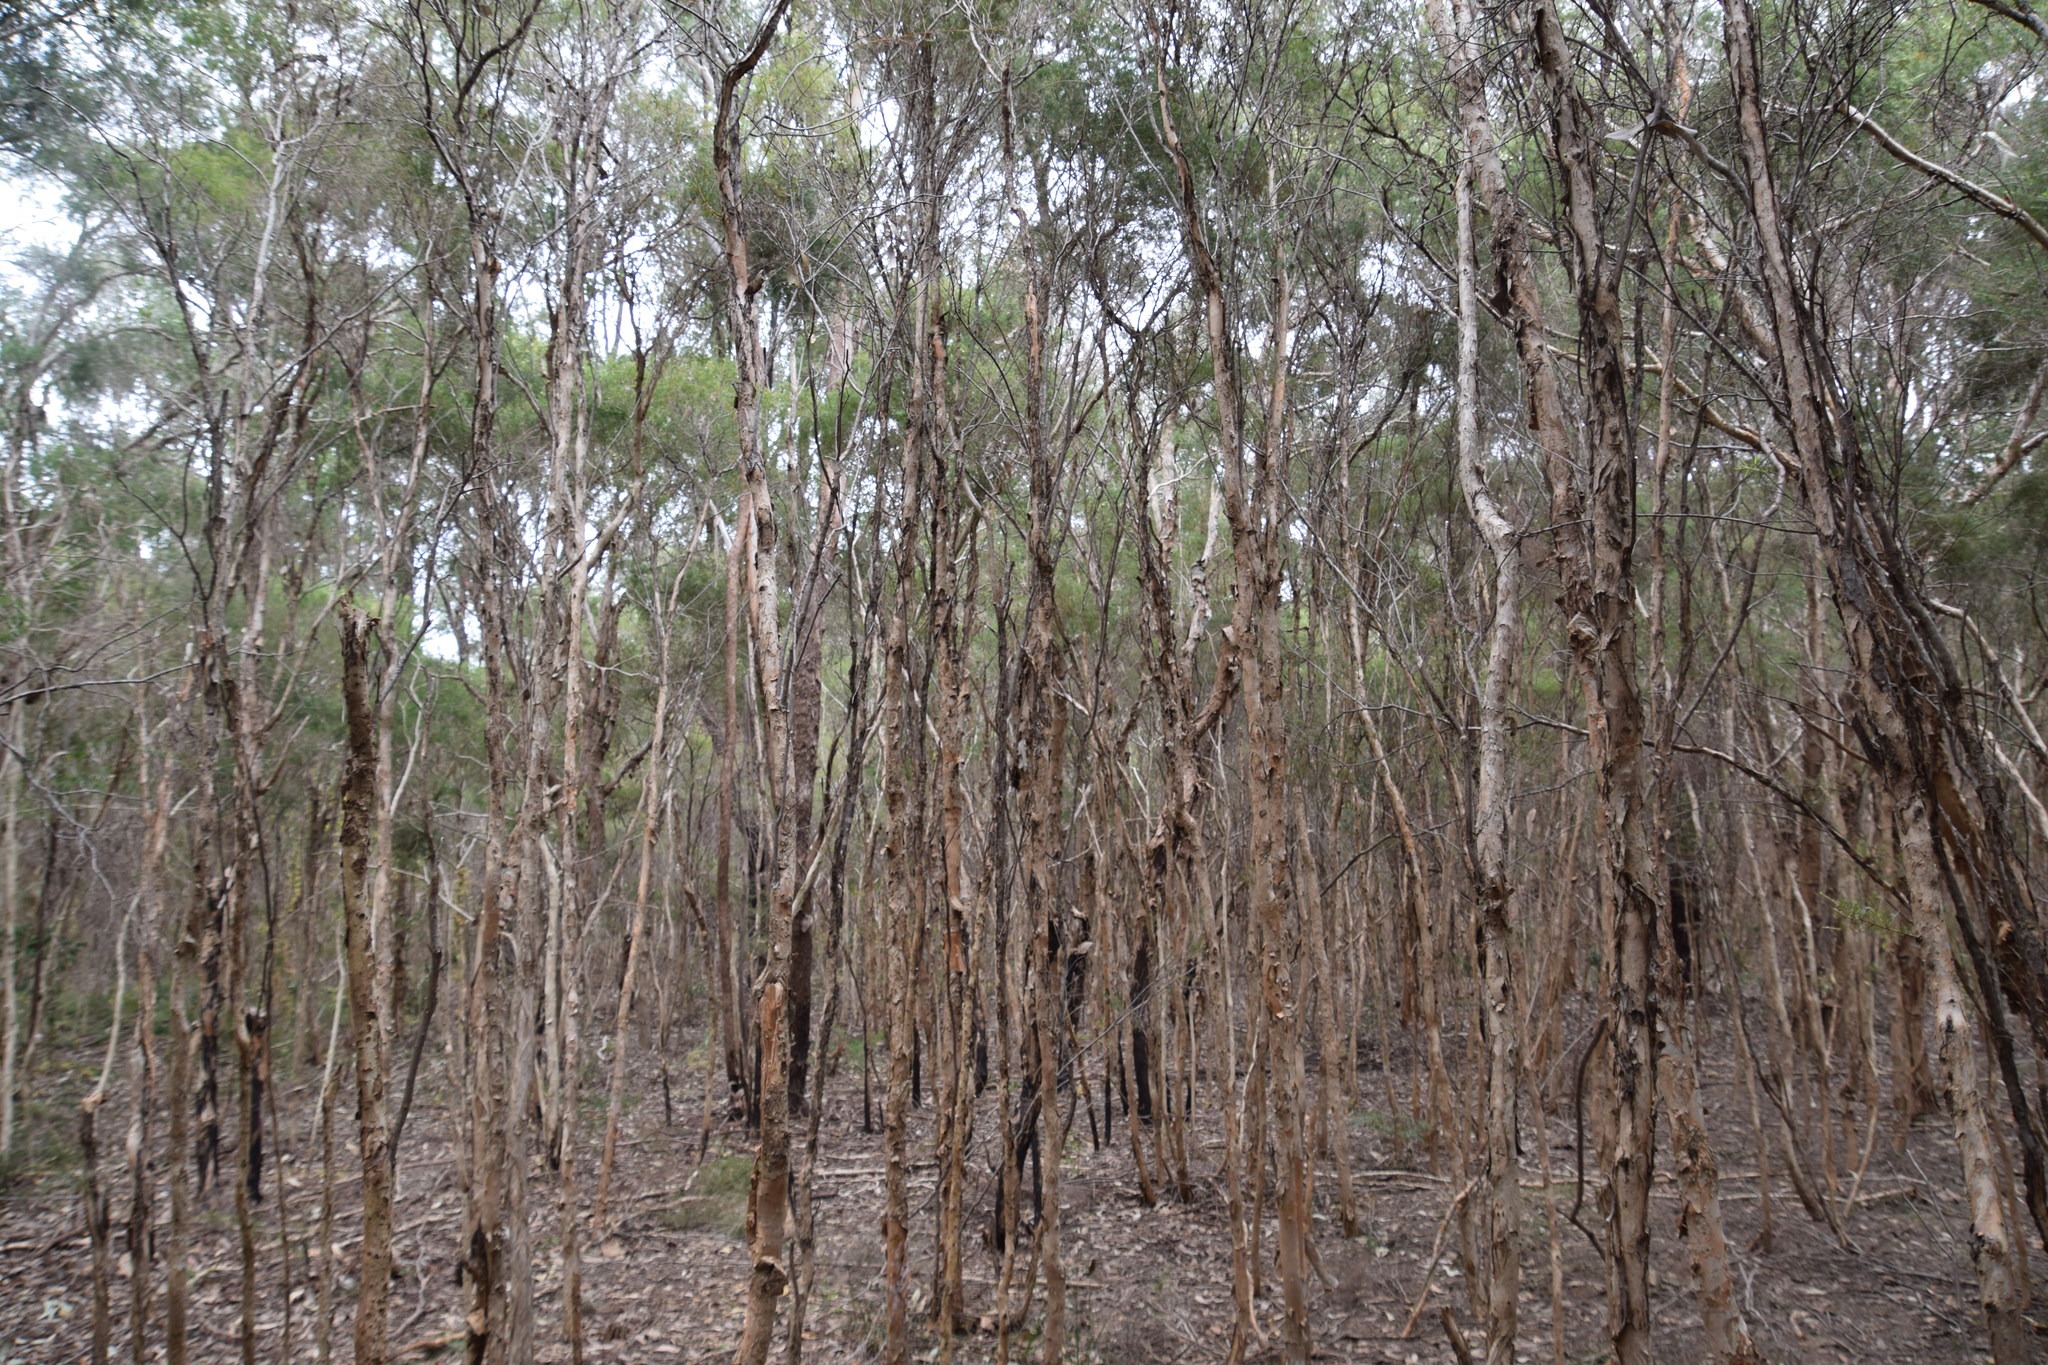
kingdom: Plantae
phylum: Tracheophyta
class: Magnoliopsida
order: Myrtales
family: Myrtaceae
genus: Melaleuca
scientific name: Melaleuca nodosa
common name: Prickly-leaf paperbark
